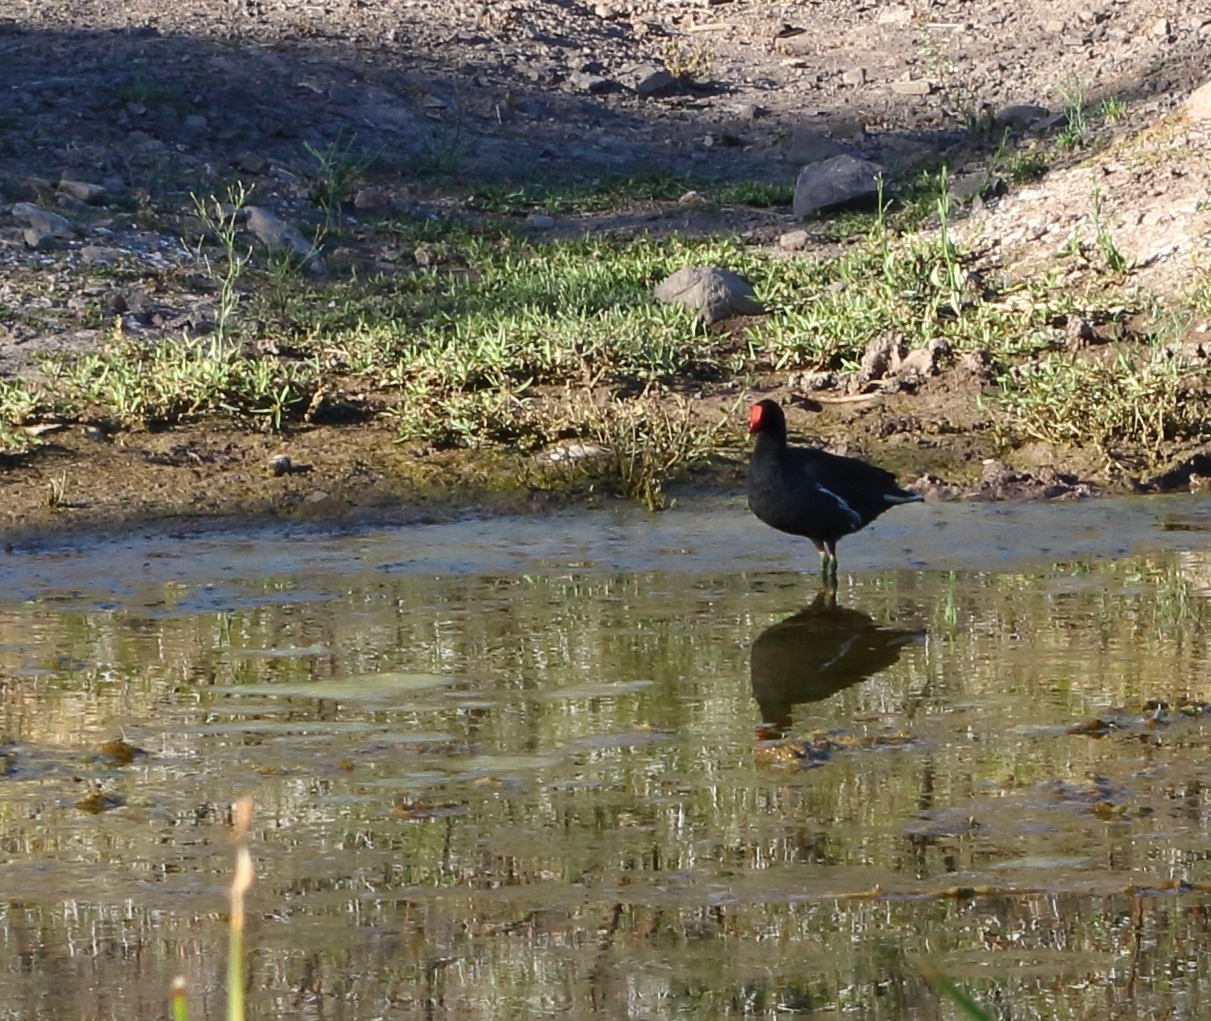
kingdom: Animalia
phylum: Chordata
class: Aves
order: Gruiformes
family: Rallidae
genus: Gallinula
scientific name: Gallinula chloropus
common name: Common moorhen
